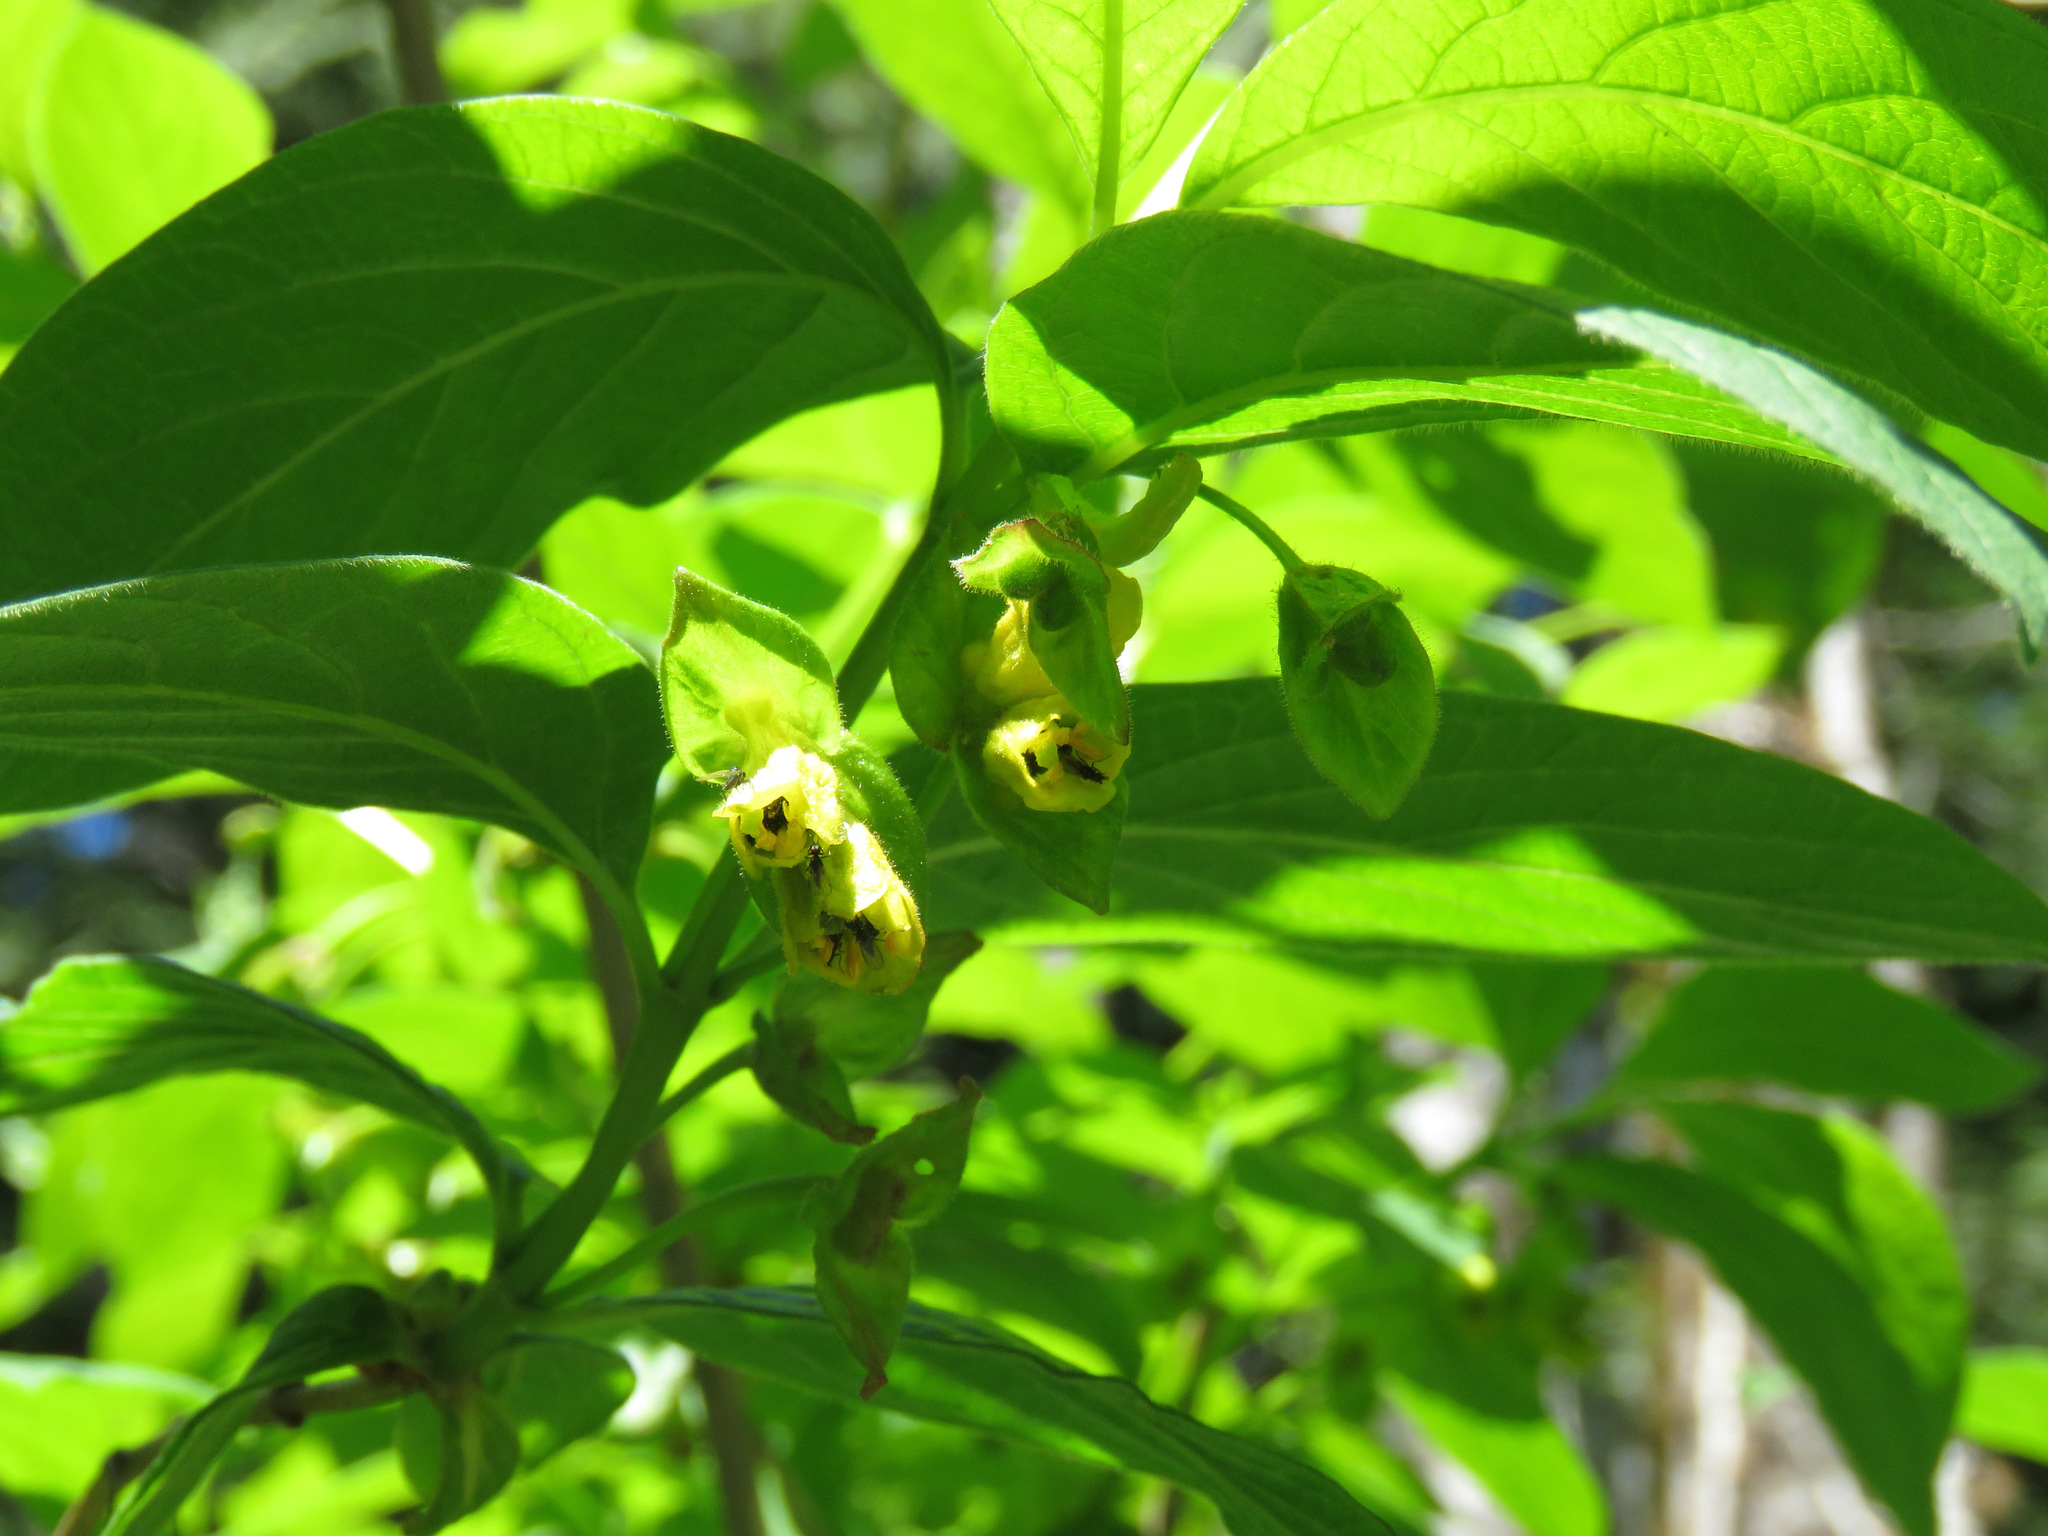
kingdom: Plantae
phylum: Tracheophyta
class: Magnoliopsida
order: Dipsacales
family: Caprifoliaceae
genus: Lonicera
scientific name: Lonicera involucrata
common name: Californian honeysuckle
